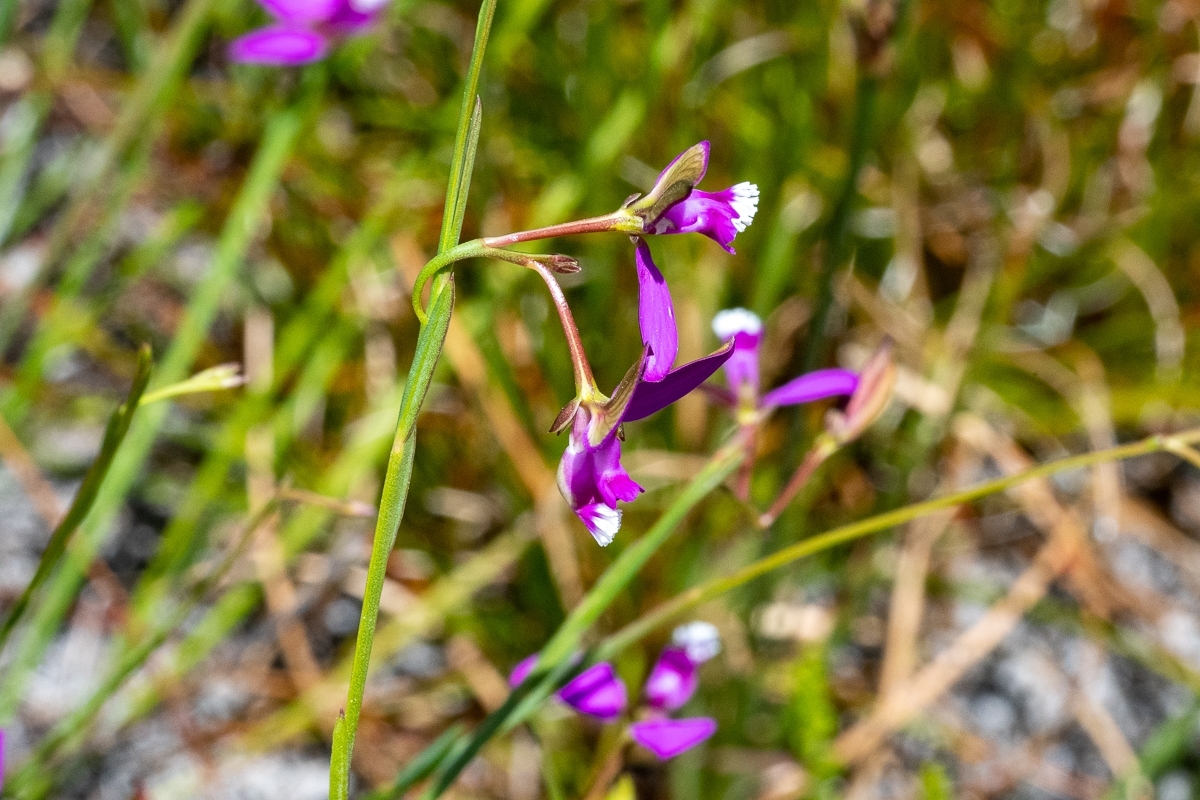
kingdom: Plantae
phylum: Tracheophyta
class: Magnoliopsida
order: Fabales
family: Polygalaceae
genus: Polygala
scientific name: Polygala refracta
